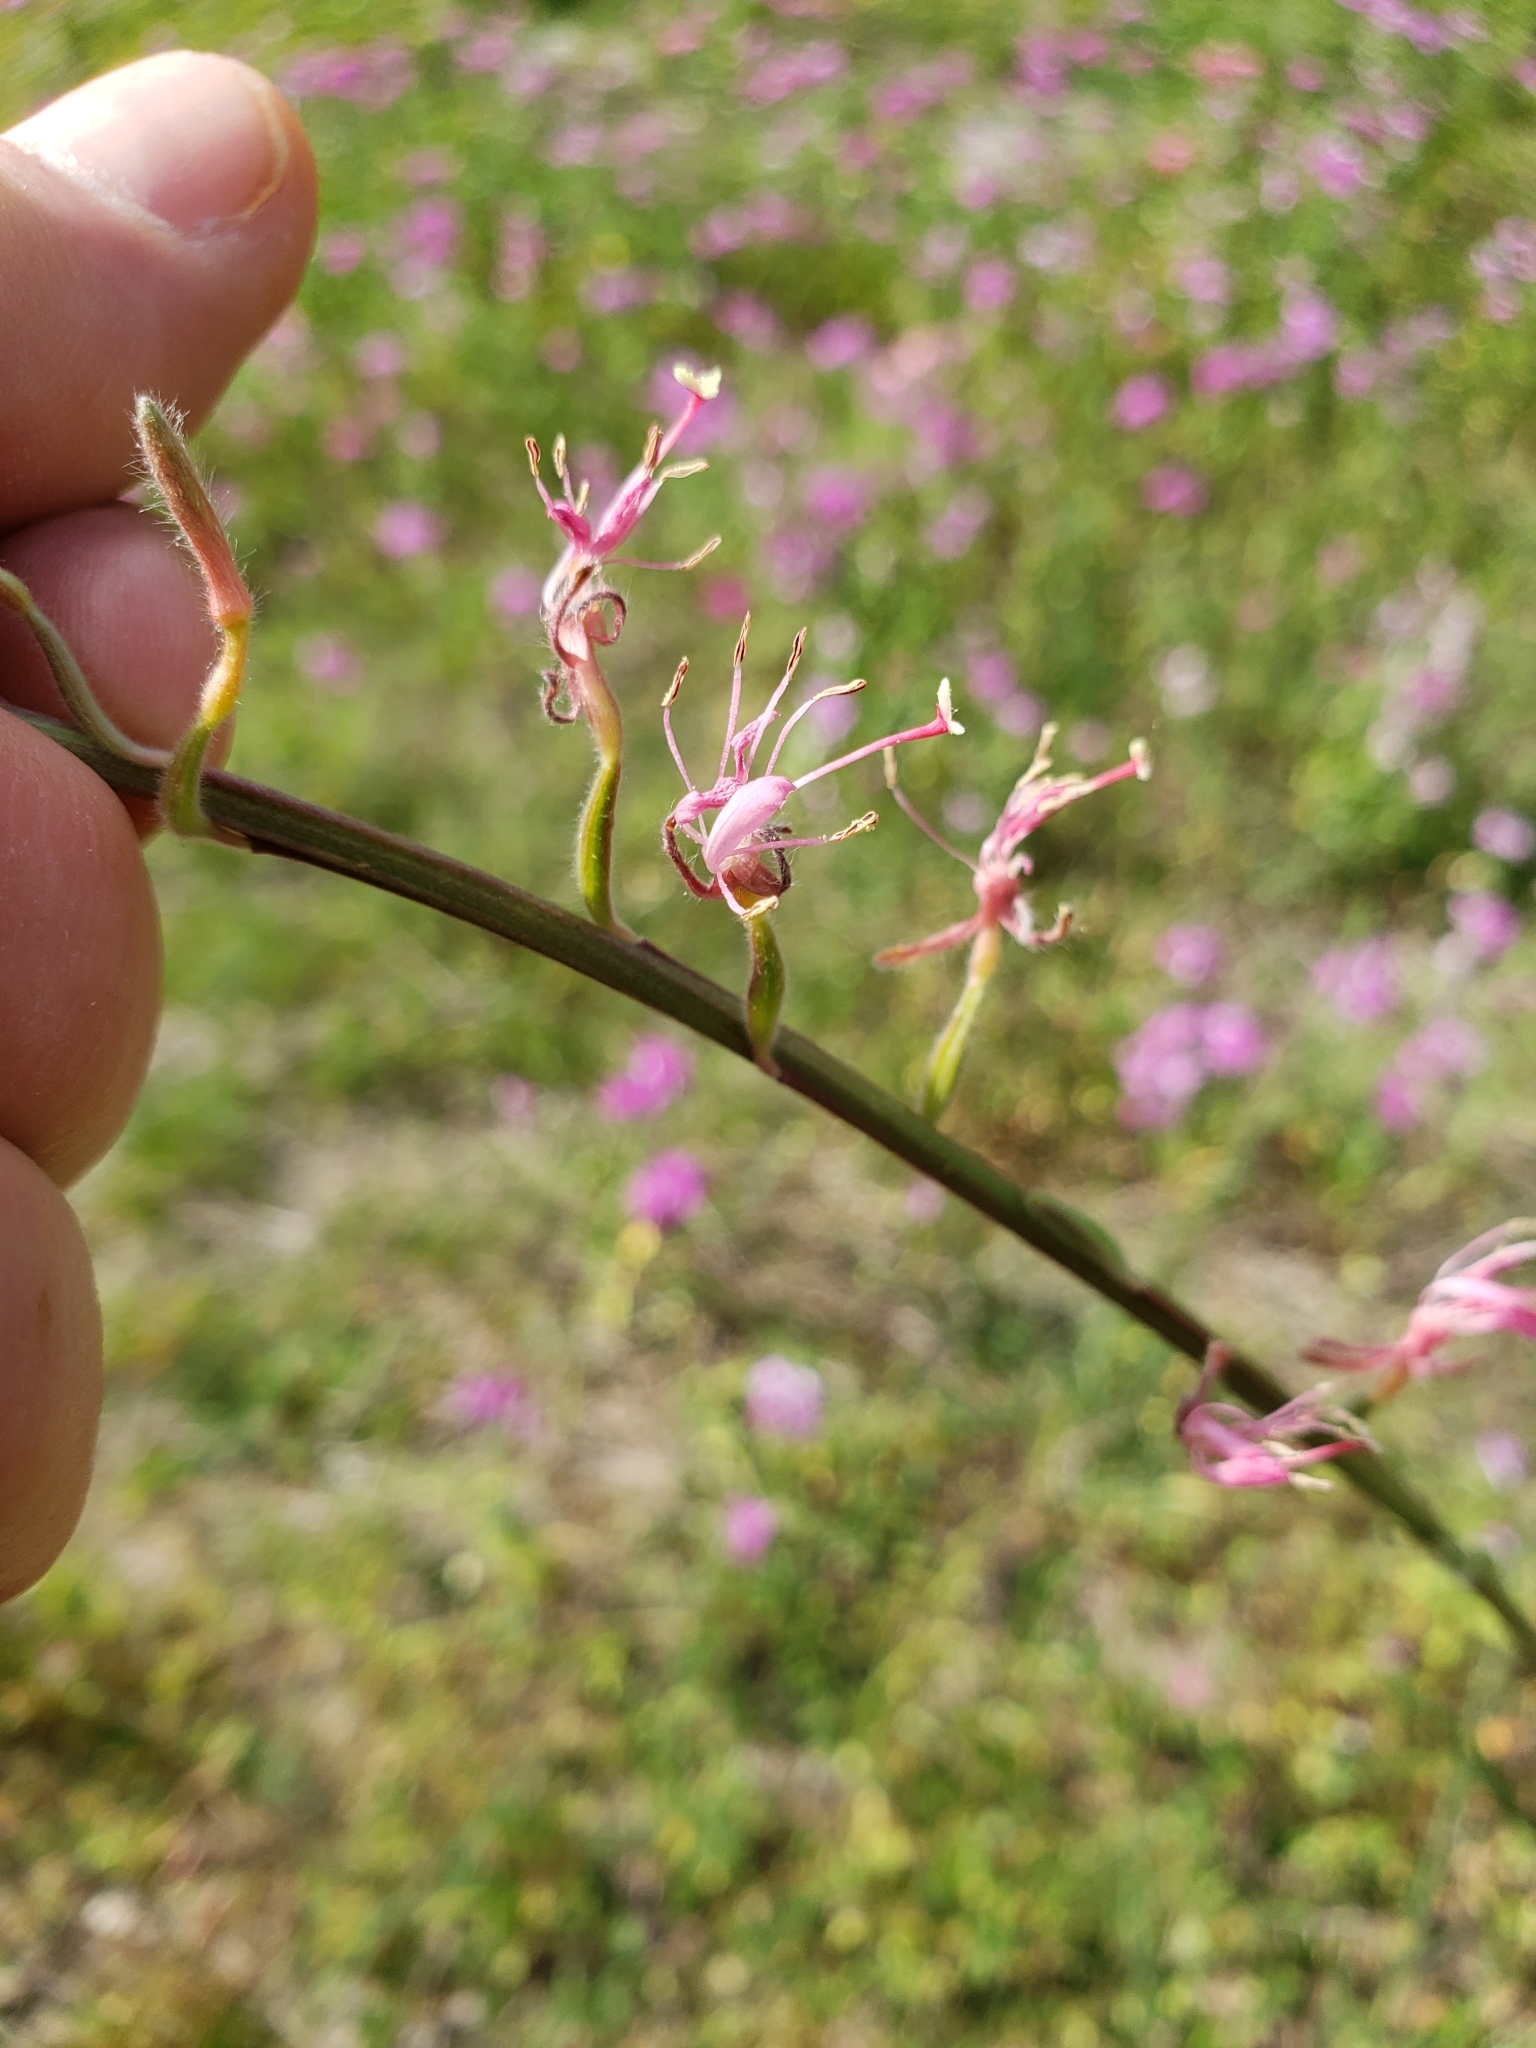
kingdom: Plantae
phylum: Tracheophyta
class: Magnoliopsida
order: Myrtales
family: Onagraceae
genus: Oenothera
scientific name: Oenothera simulans
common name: Southern beeblossom
